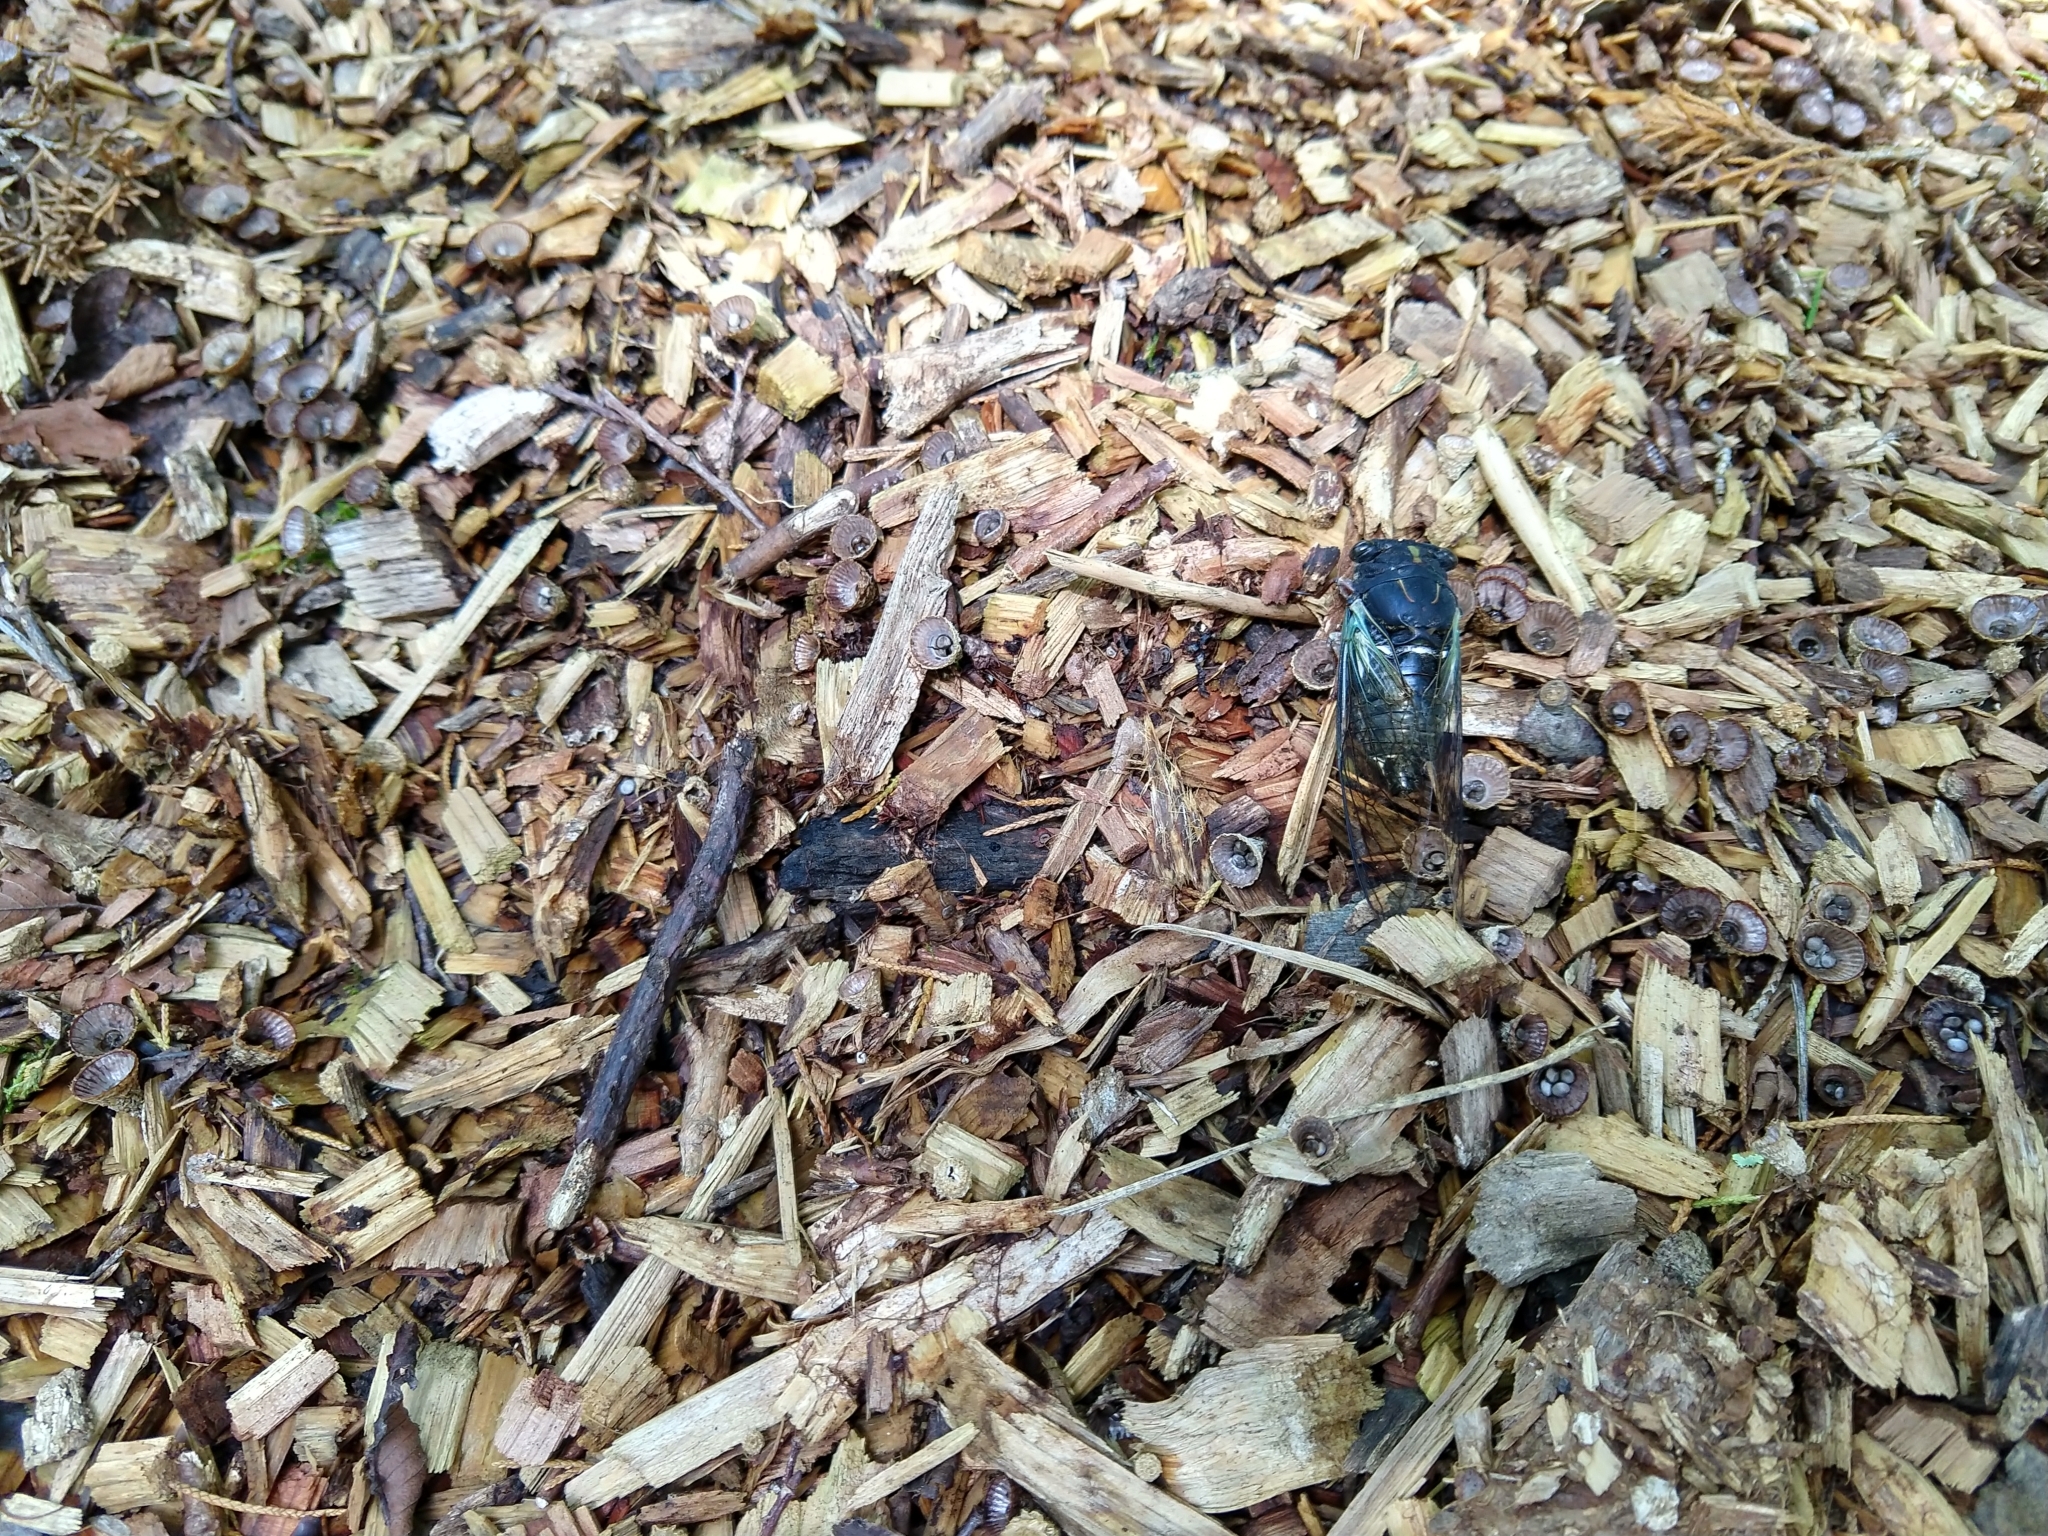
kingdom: Animalia
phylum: Arthropoda
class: Insecta
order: Hemiptera
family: Cicadidae
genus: Neotibicen
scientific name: Neotibicen lyricen
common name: Lyric cicada
